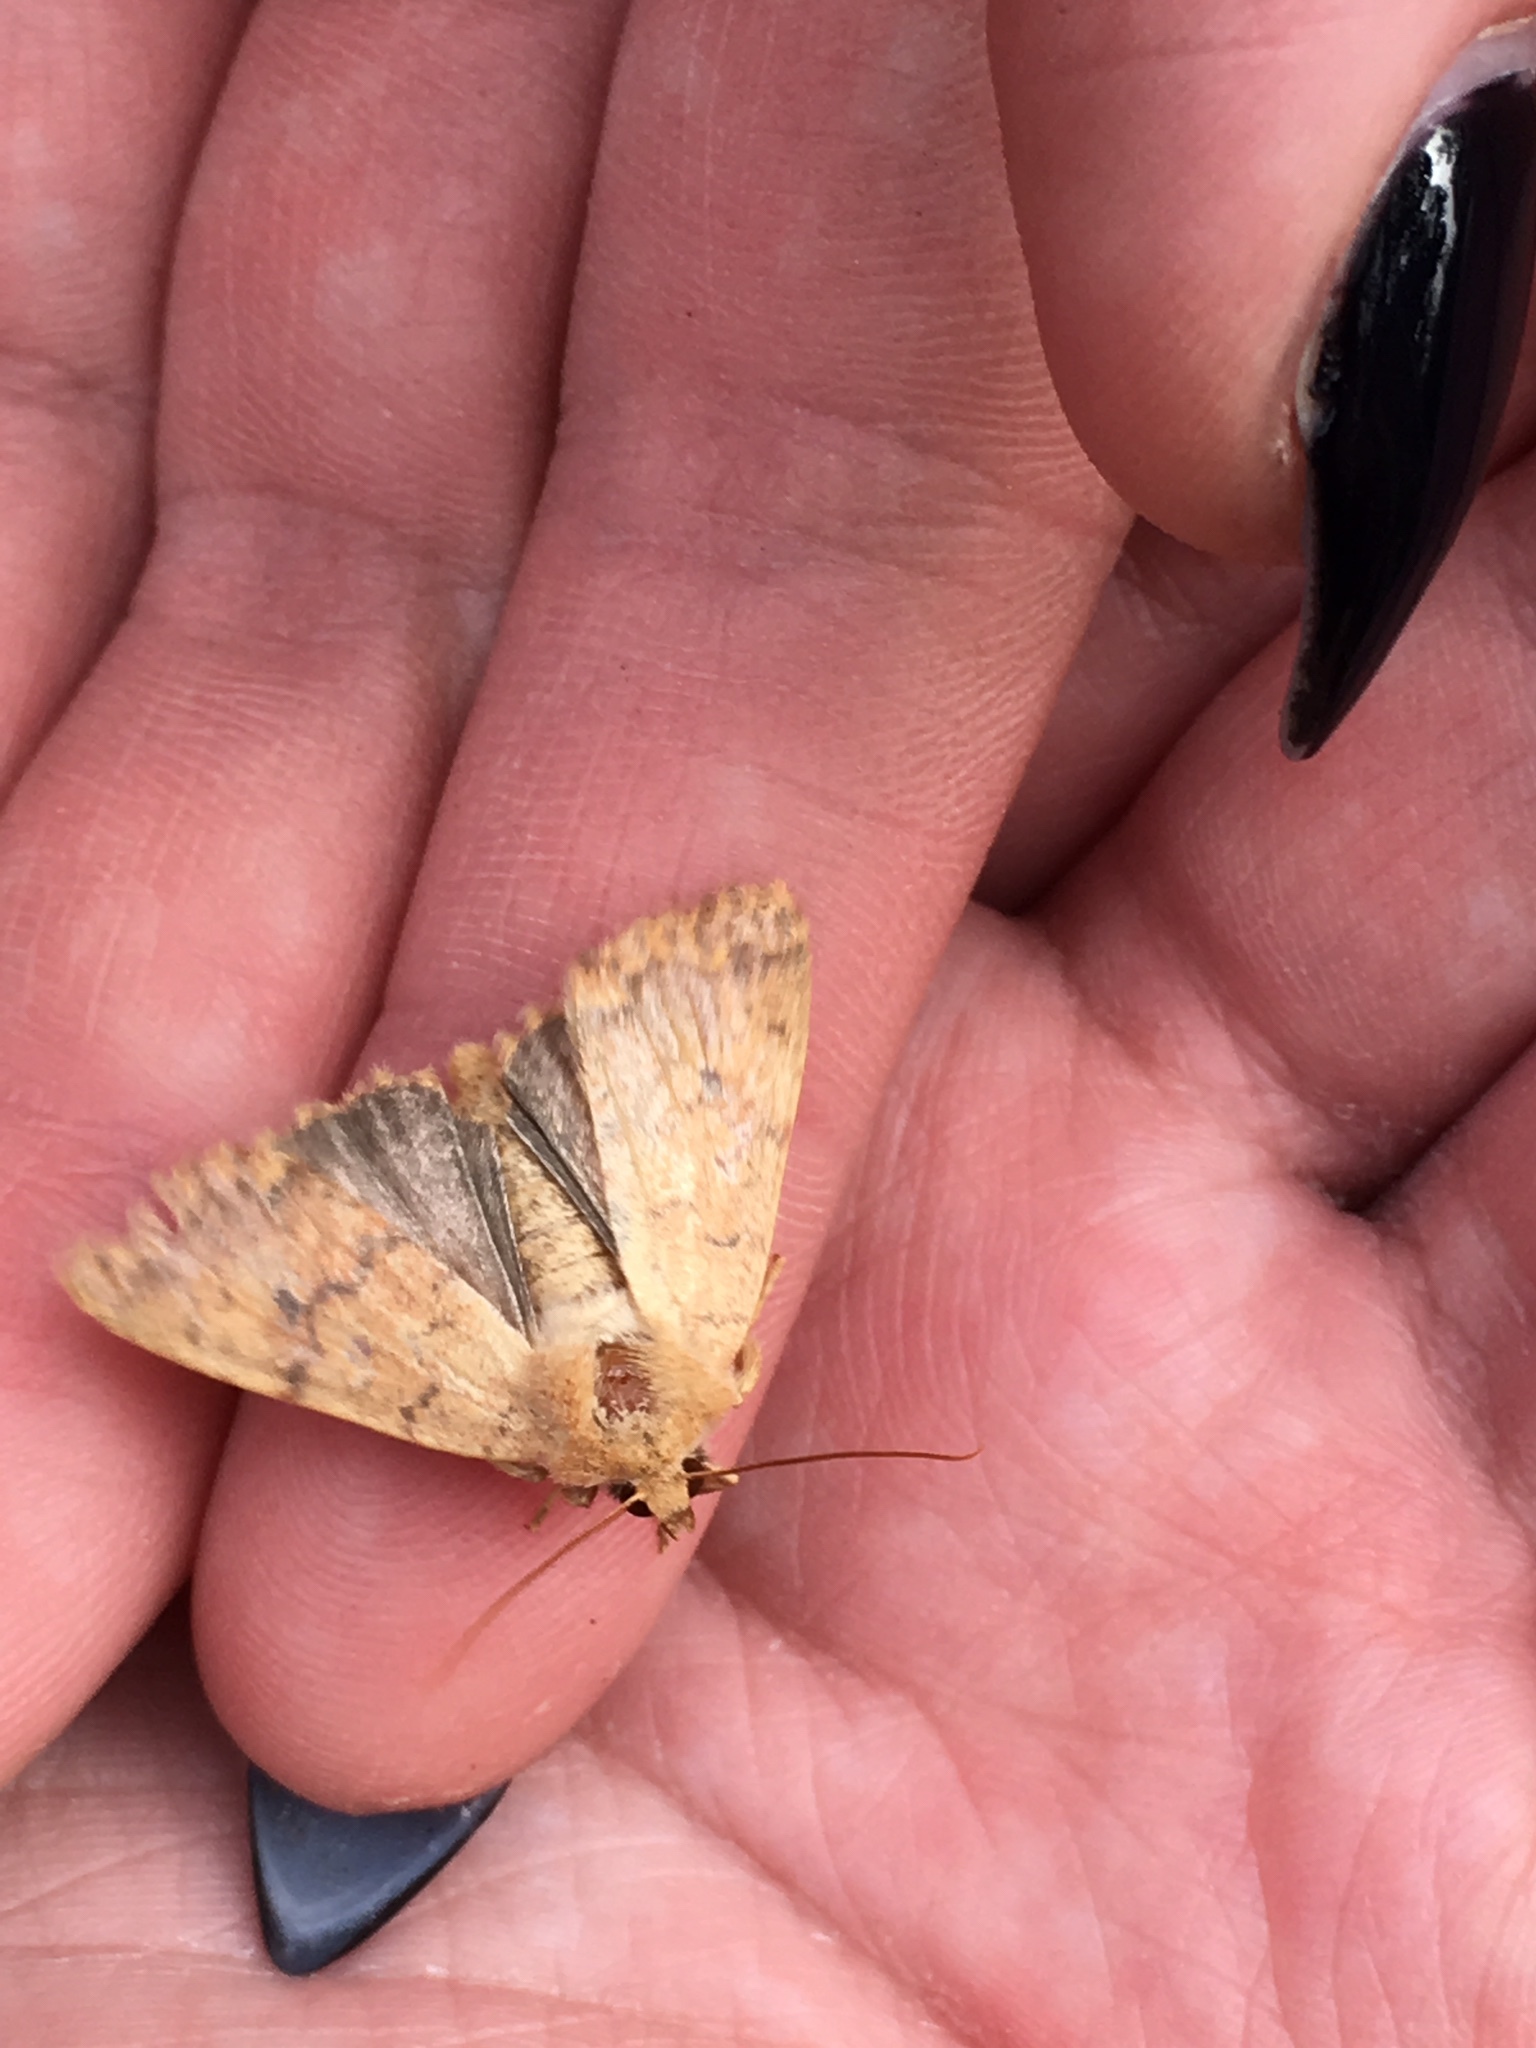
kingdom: Animalia
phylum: Arthropoda
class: Insecta
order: Lepidoptera
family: Noctuidae
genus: Agrochola
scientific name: Agrochola bicolorago
